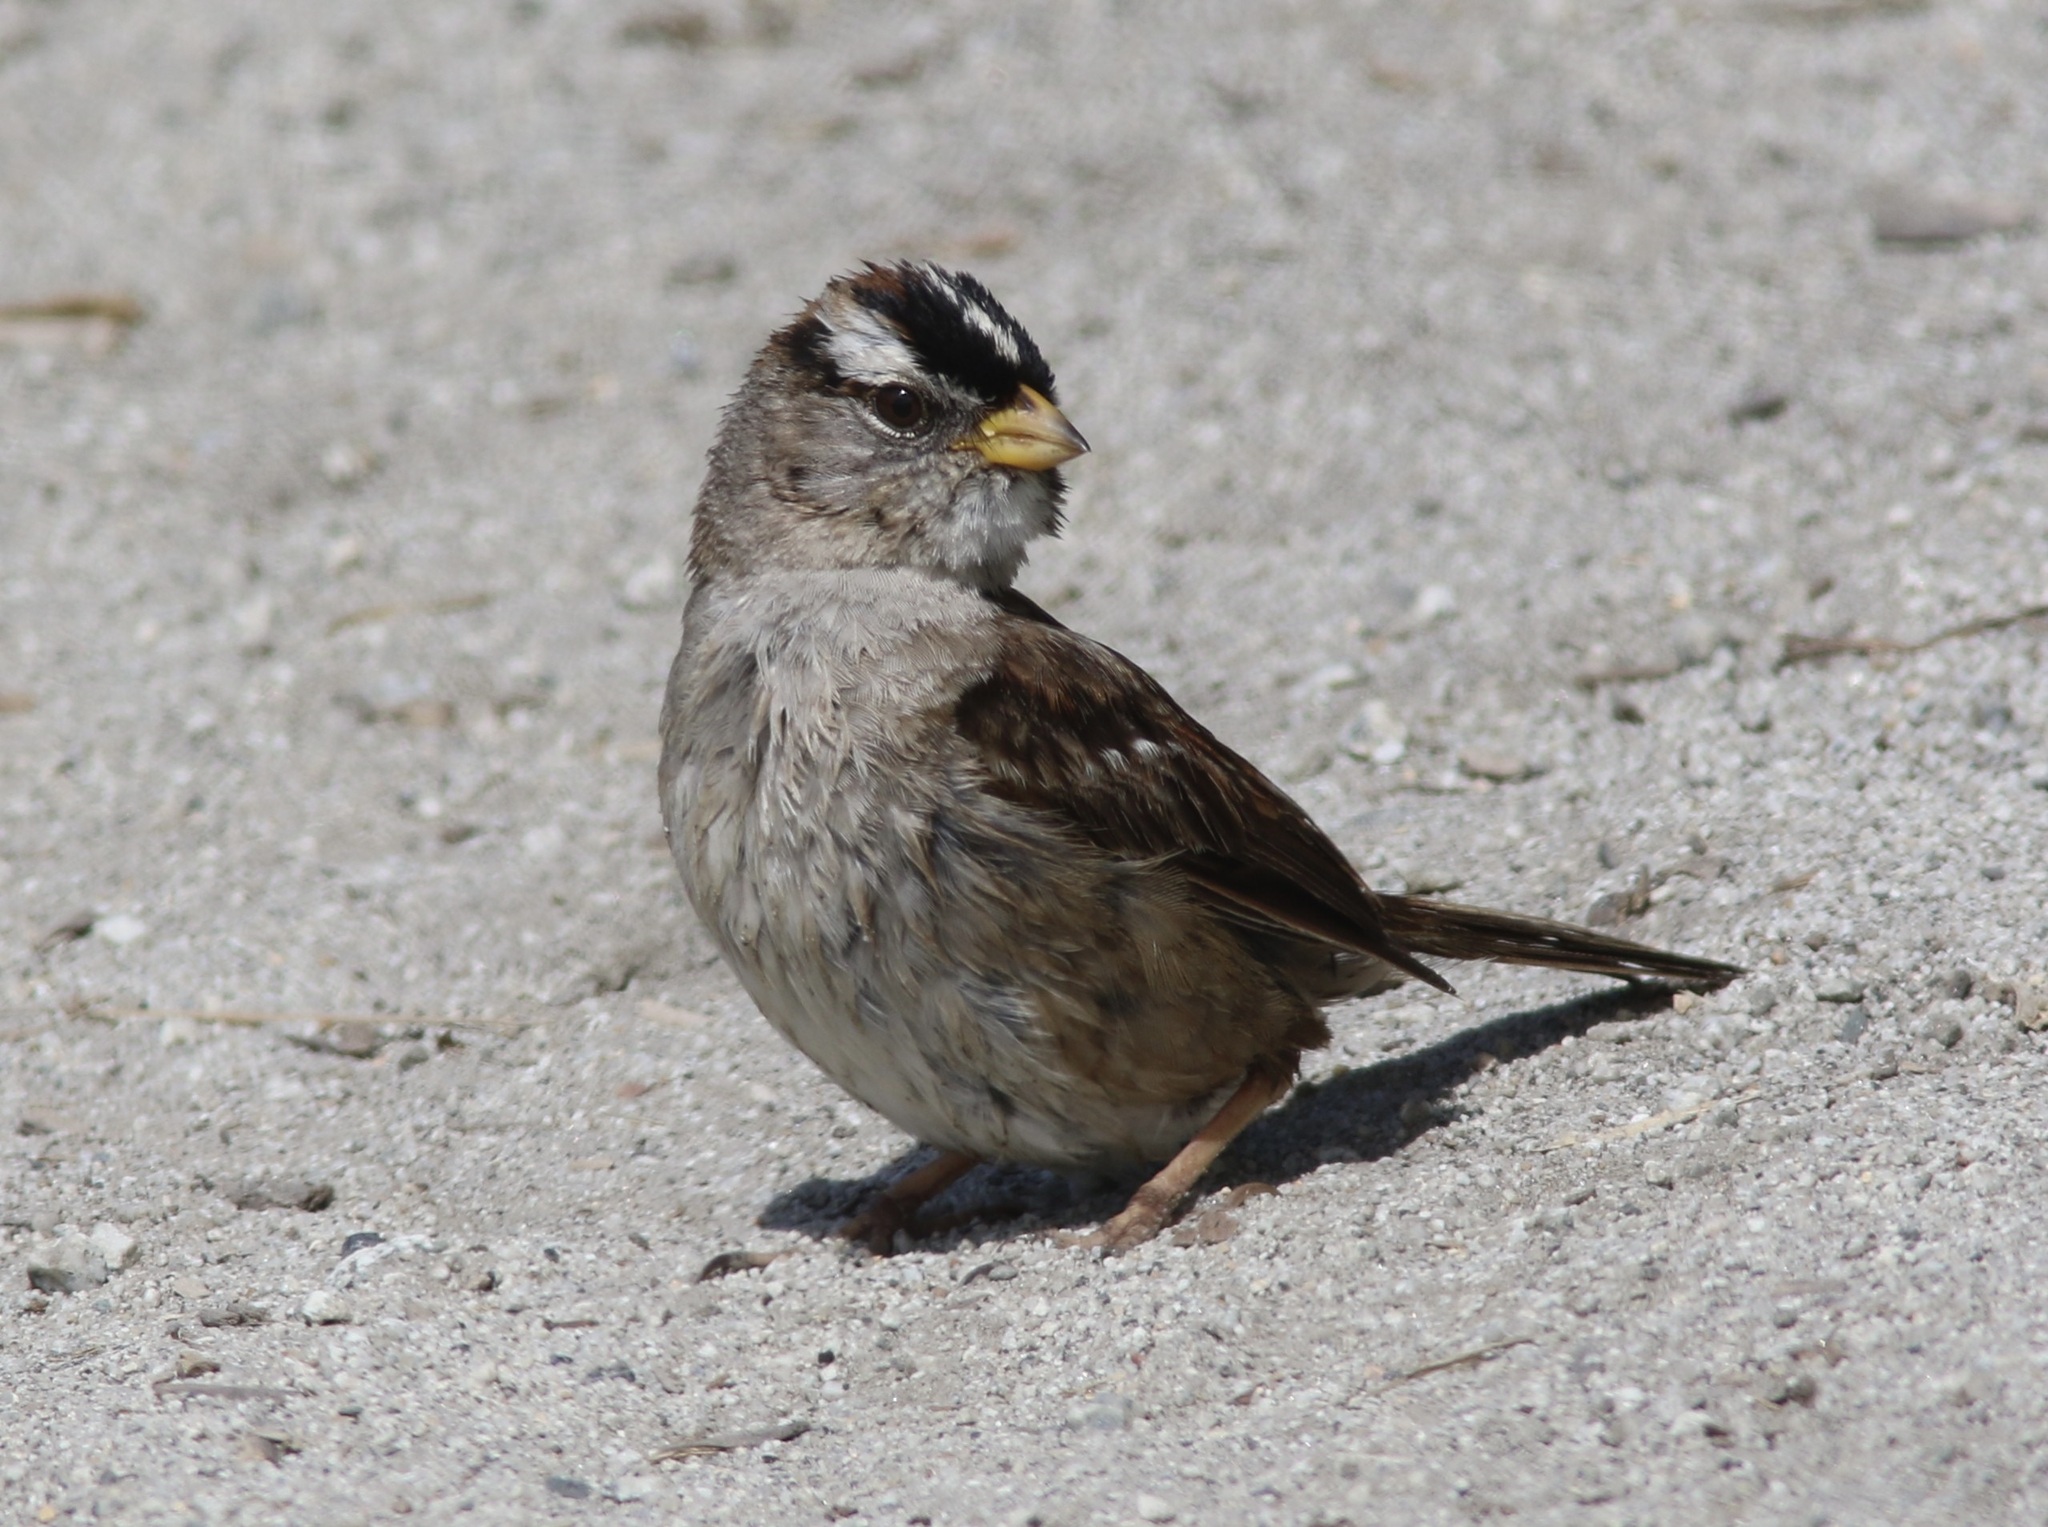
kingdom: Animalia
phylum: Chordata
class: Aves
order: Passeriformes
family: Passerellidae
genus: Zonotrichia
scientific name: Zonotrichia leucophrys
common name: White-crowned sparrow
